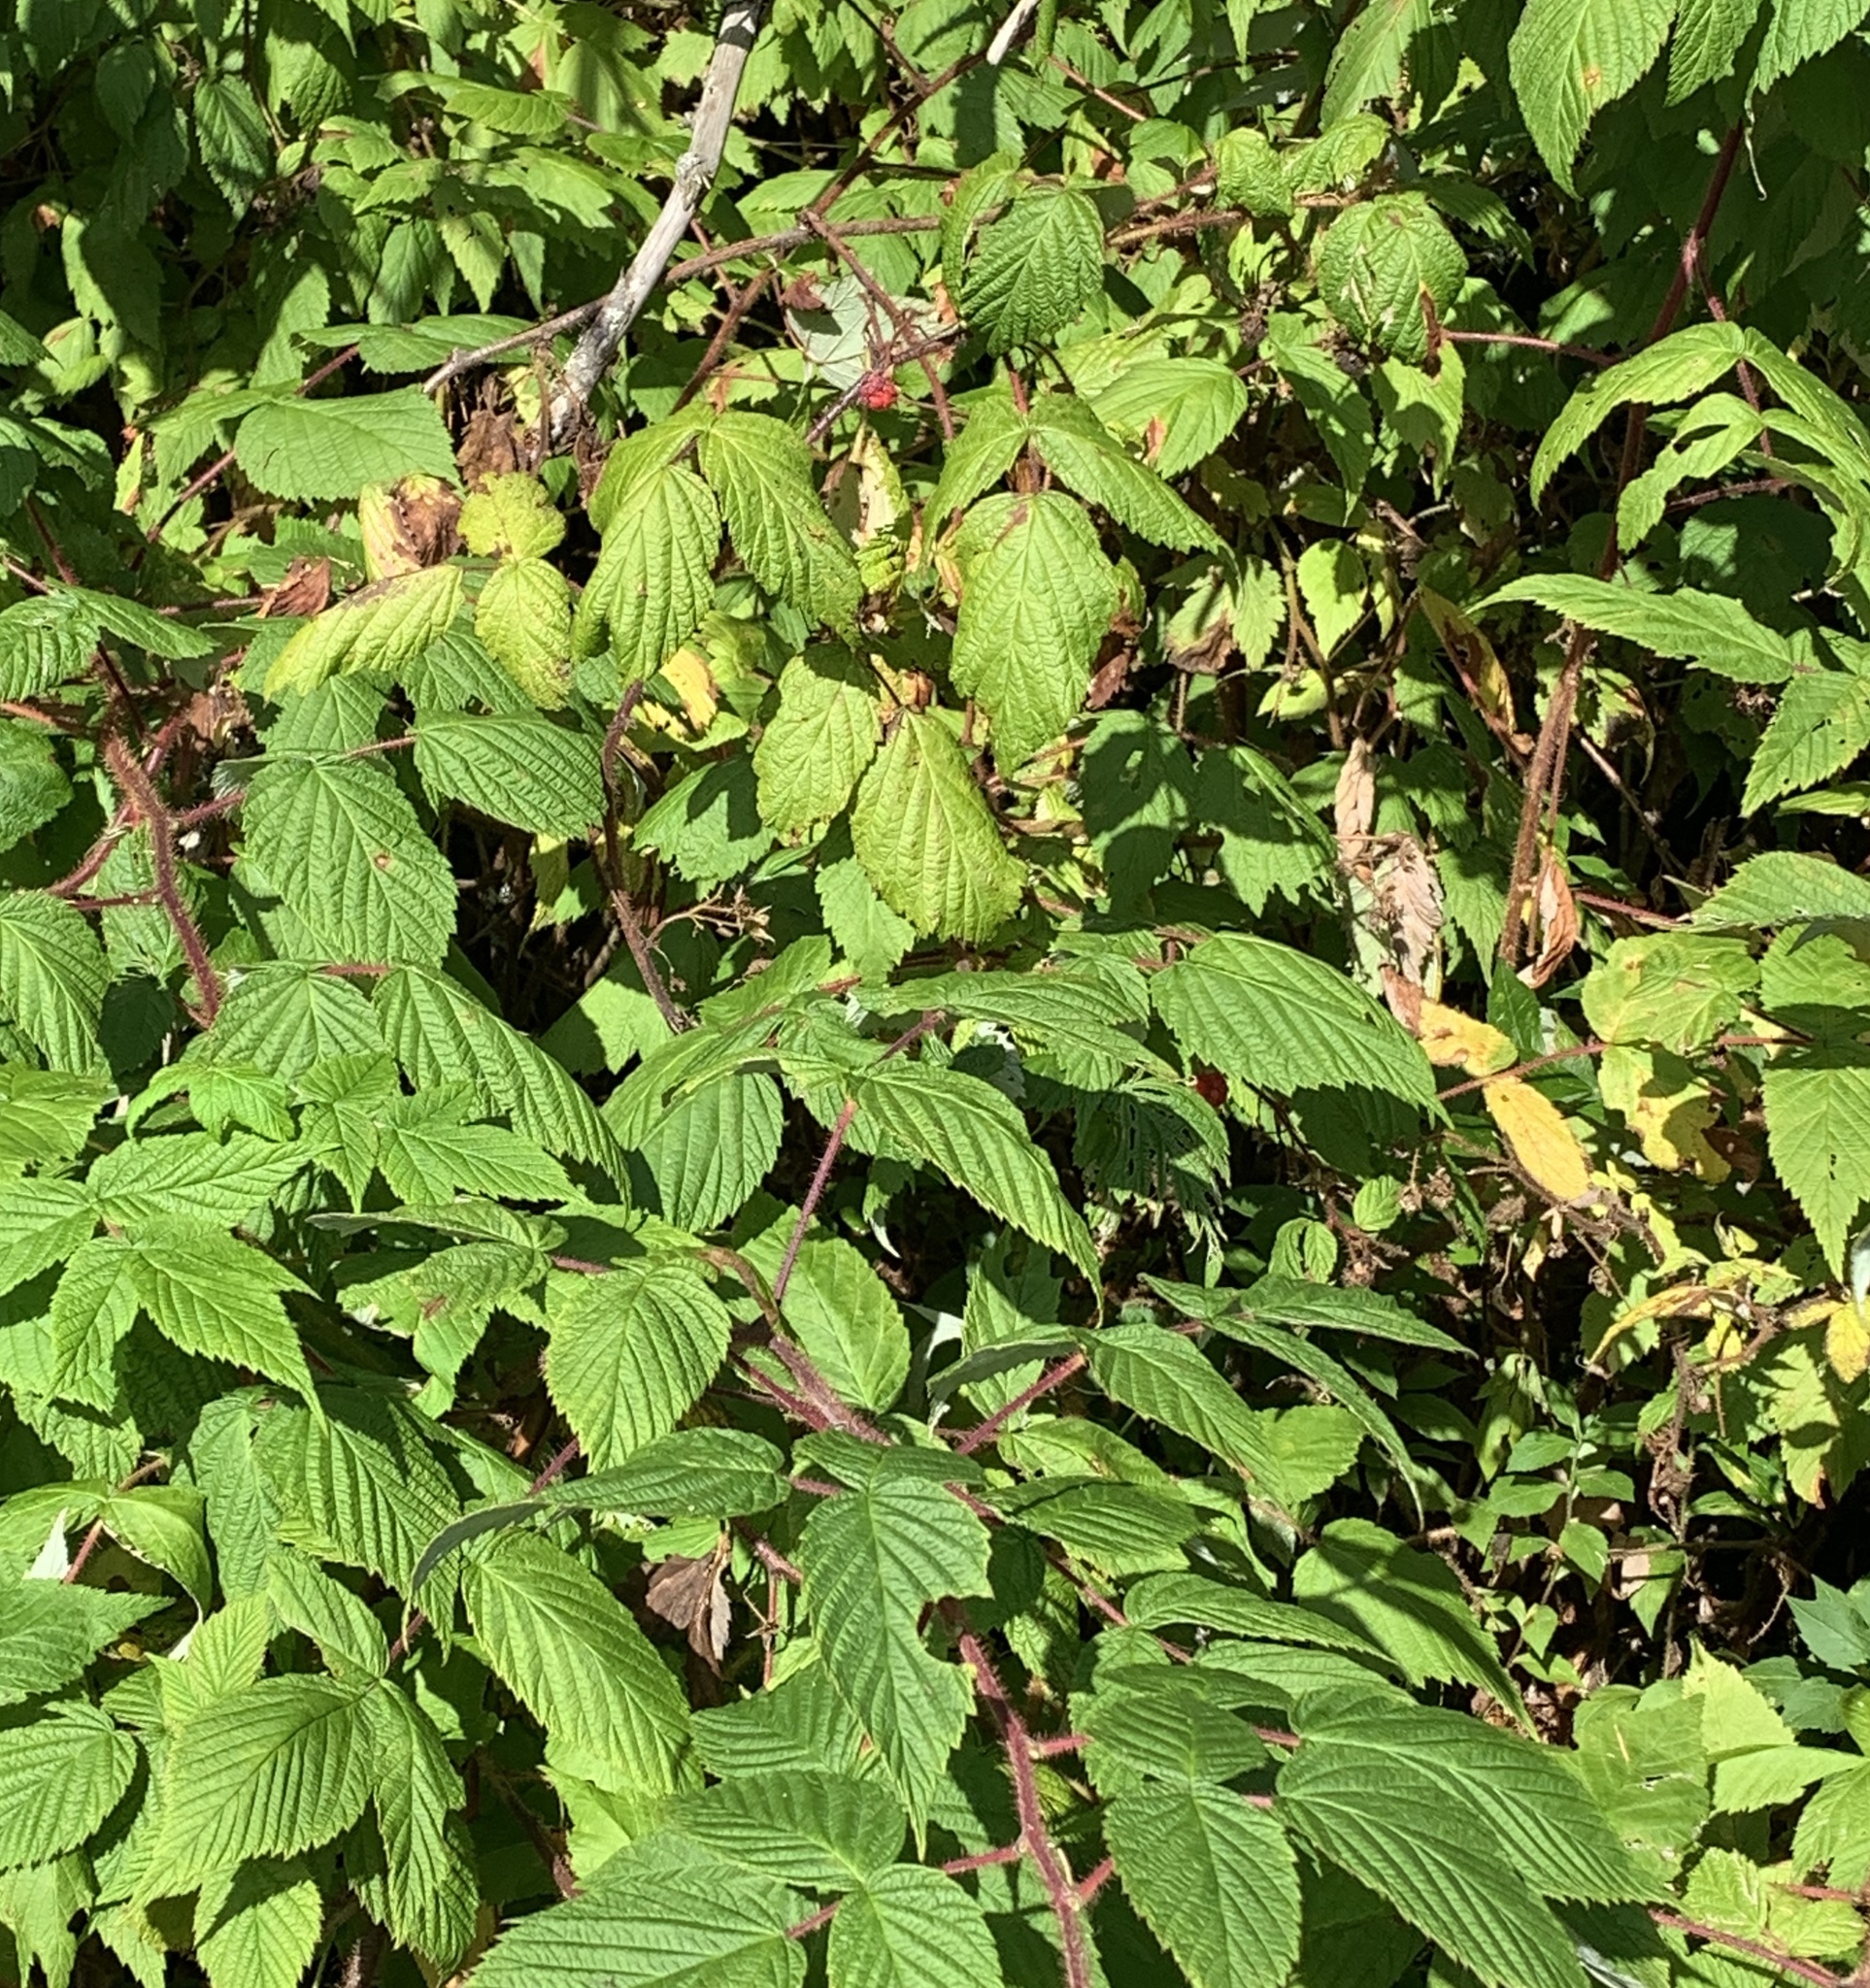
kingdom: Plantae
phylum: Tracheophyta
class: Magnoliopsida
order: Rosales
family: Rosaceae
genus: Rubus
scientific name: Rubus idaeus
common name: Raspberry
